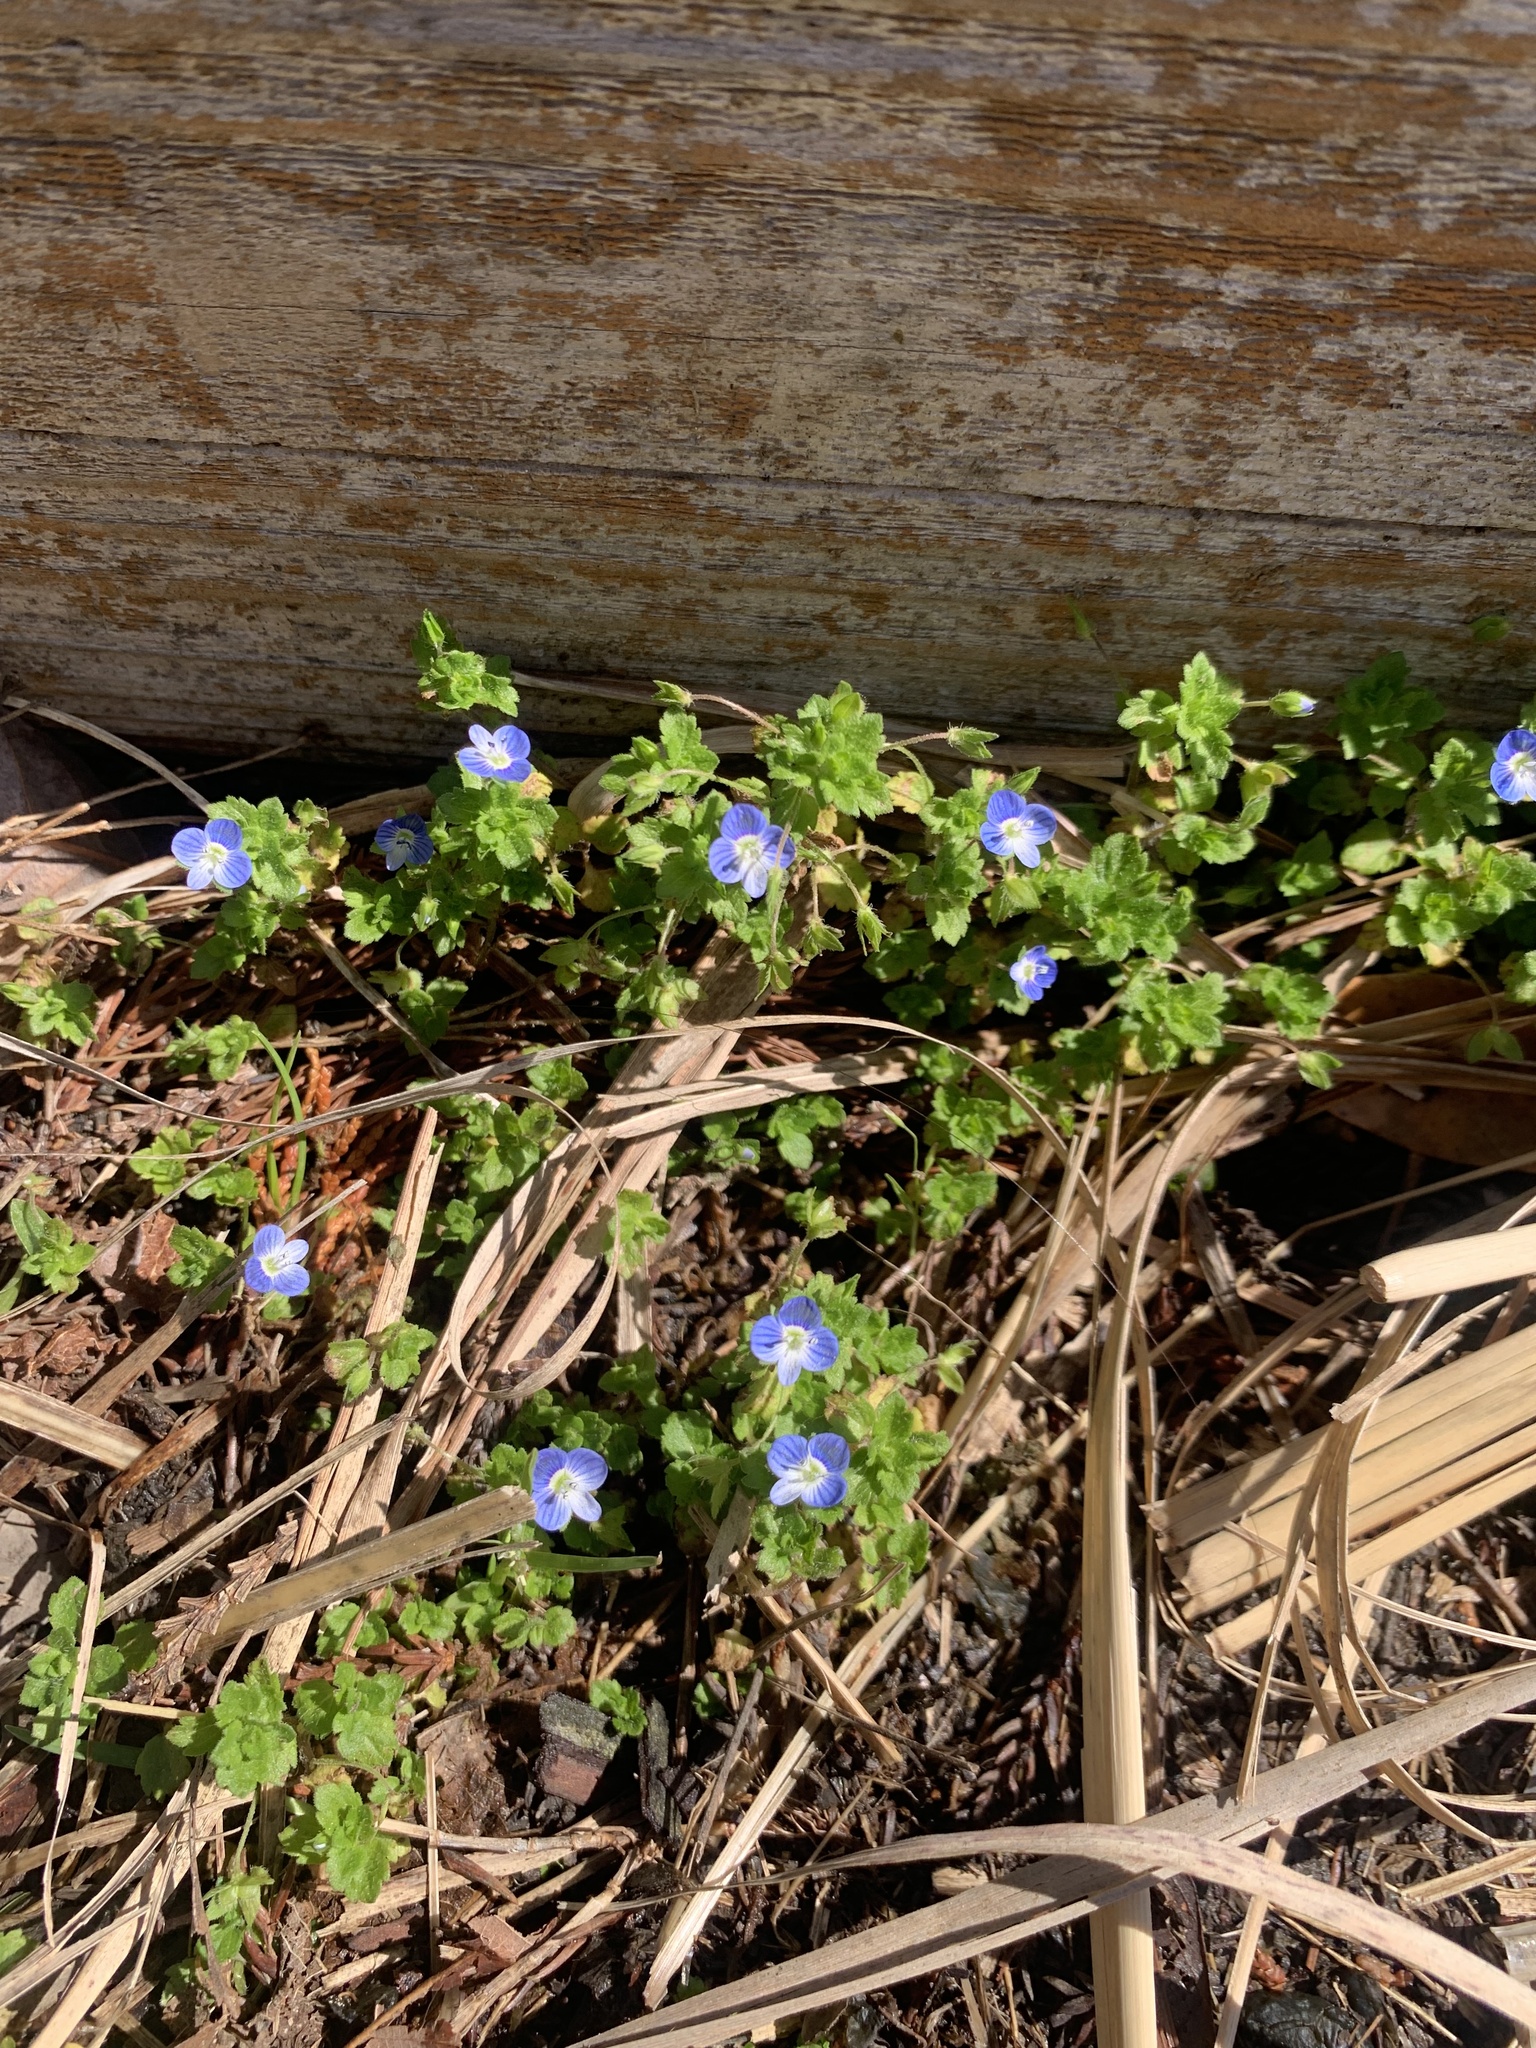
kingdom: Plantae
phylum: Tracheophyta
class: Magnoliopsida
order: Lamiales
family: Plantaginaceae
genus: Veronica
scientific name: Veronica persica
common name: Common field-speedwell
